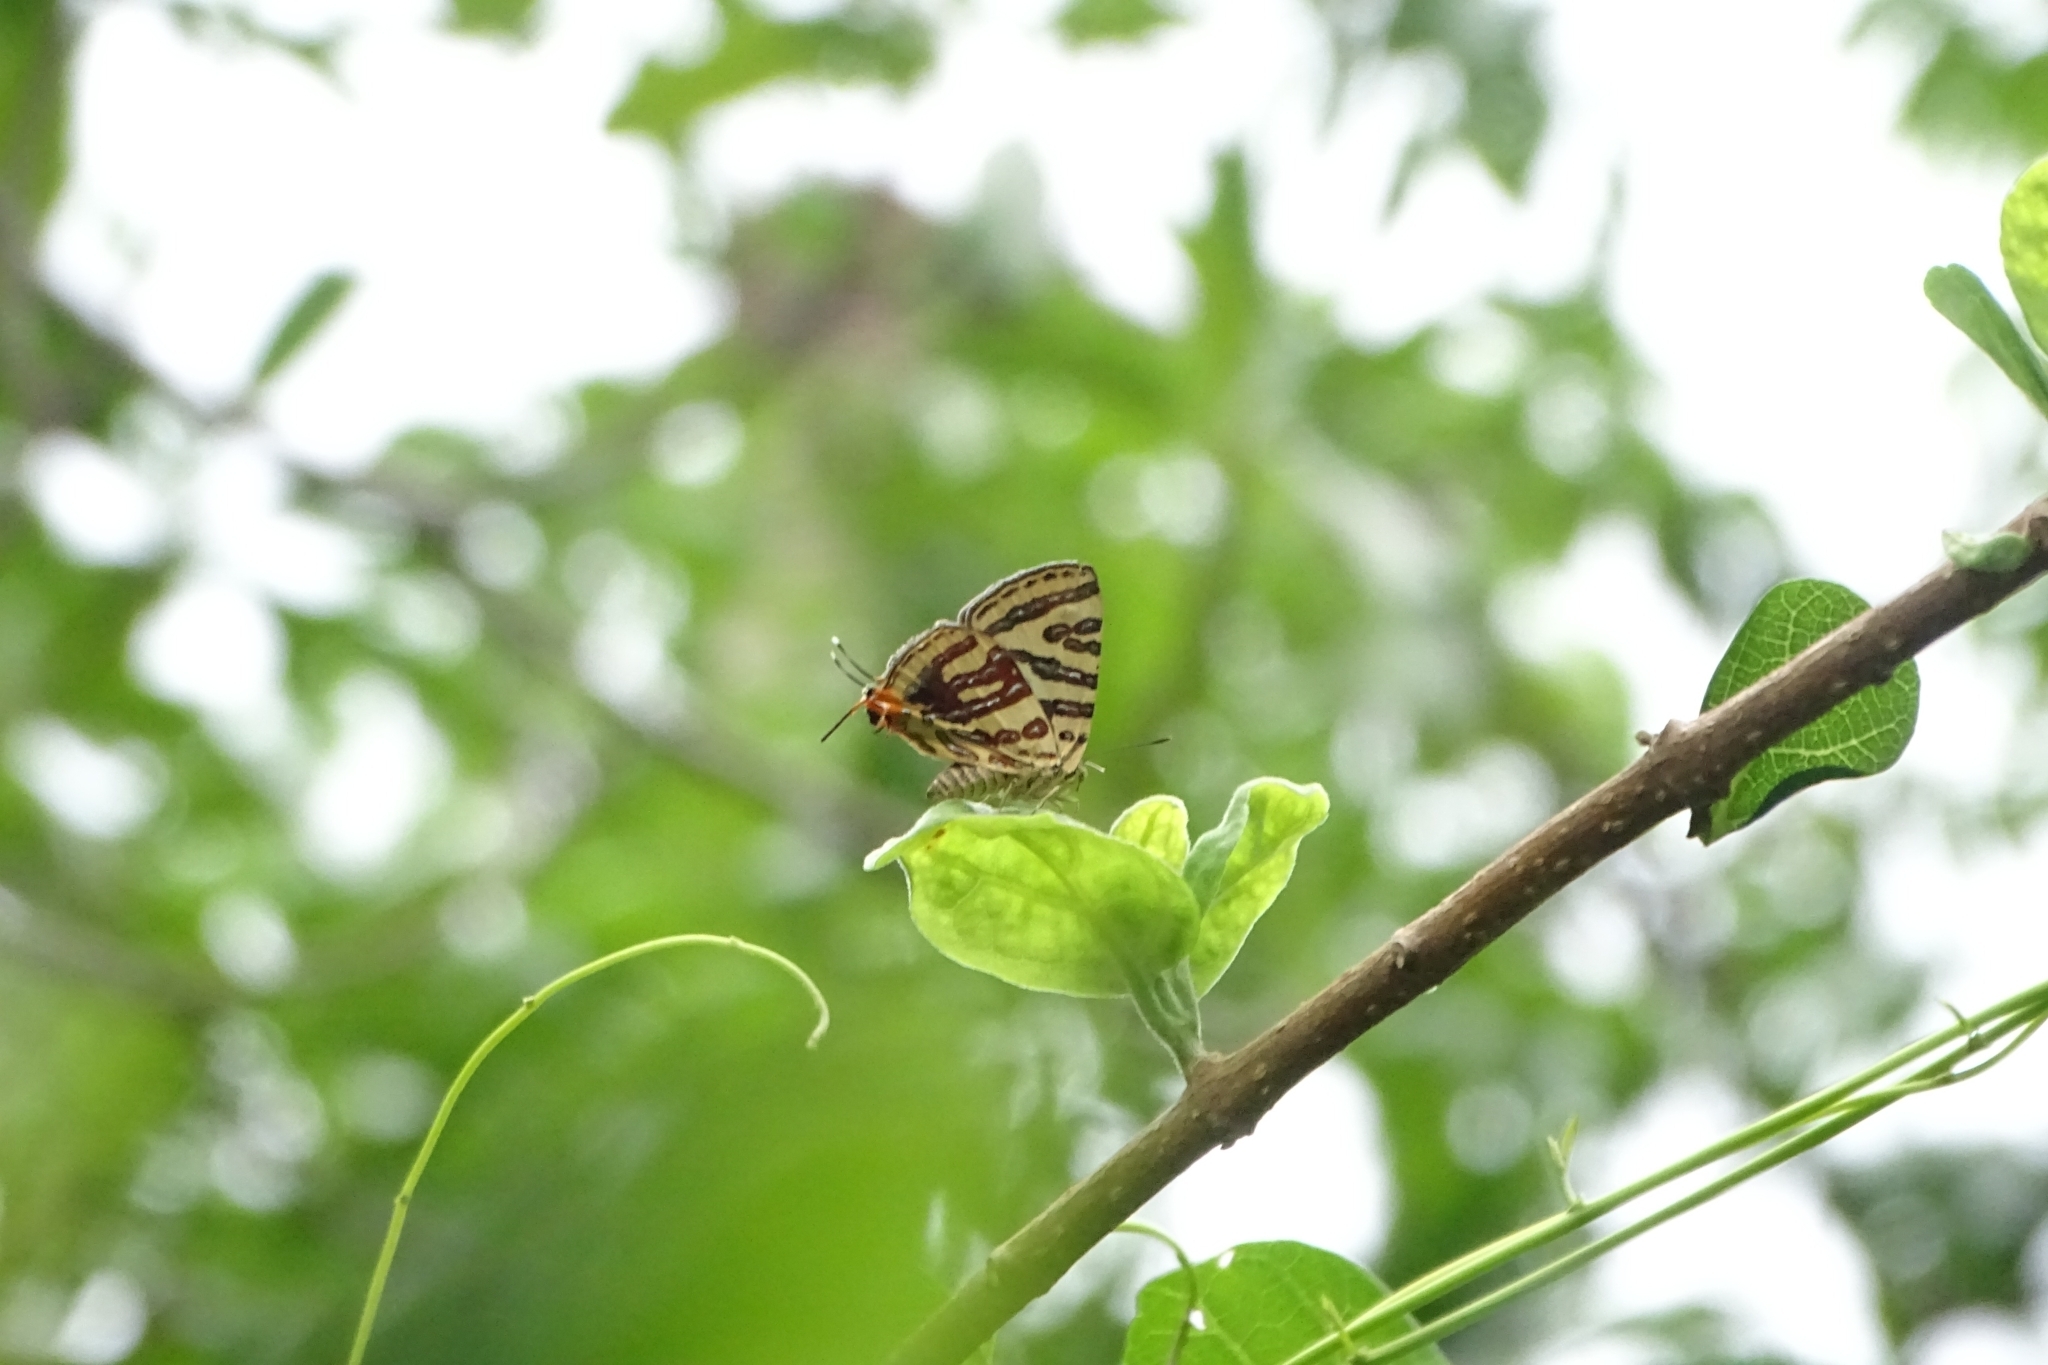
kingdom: Animalia
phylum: Arthropoda
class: Insecta
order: Lepidoptera
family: Lycaenidae
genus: Cigaritis
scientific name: Cigaritis lohita
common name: Long-banded silverline
